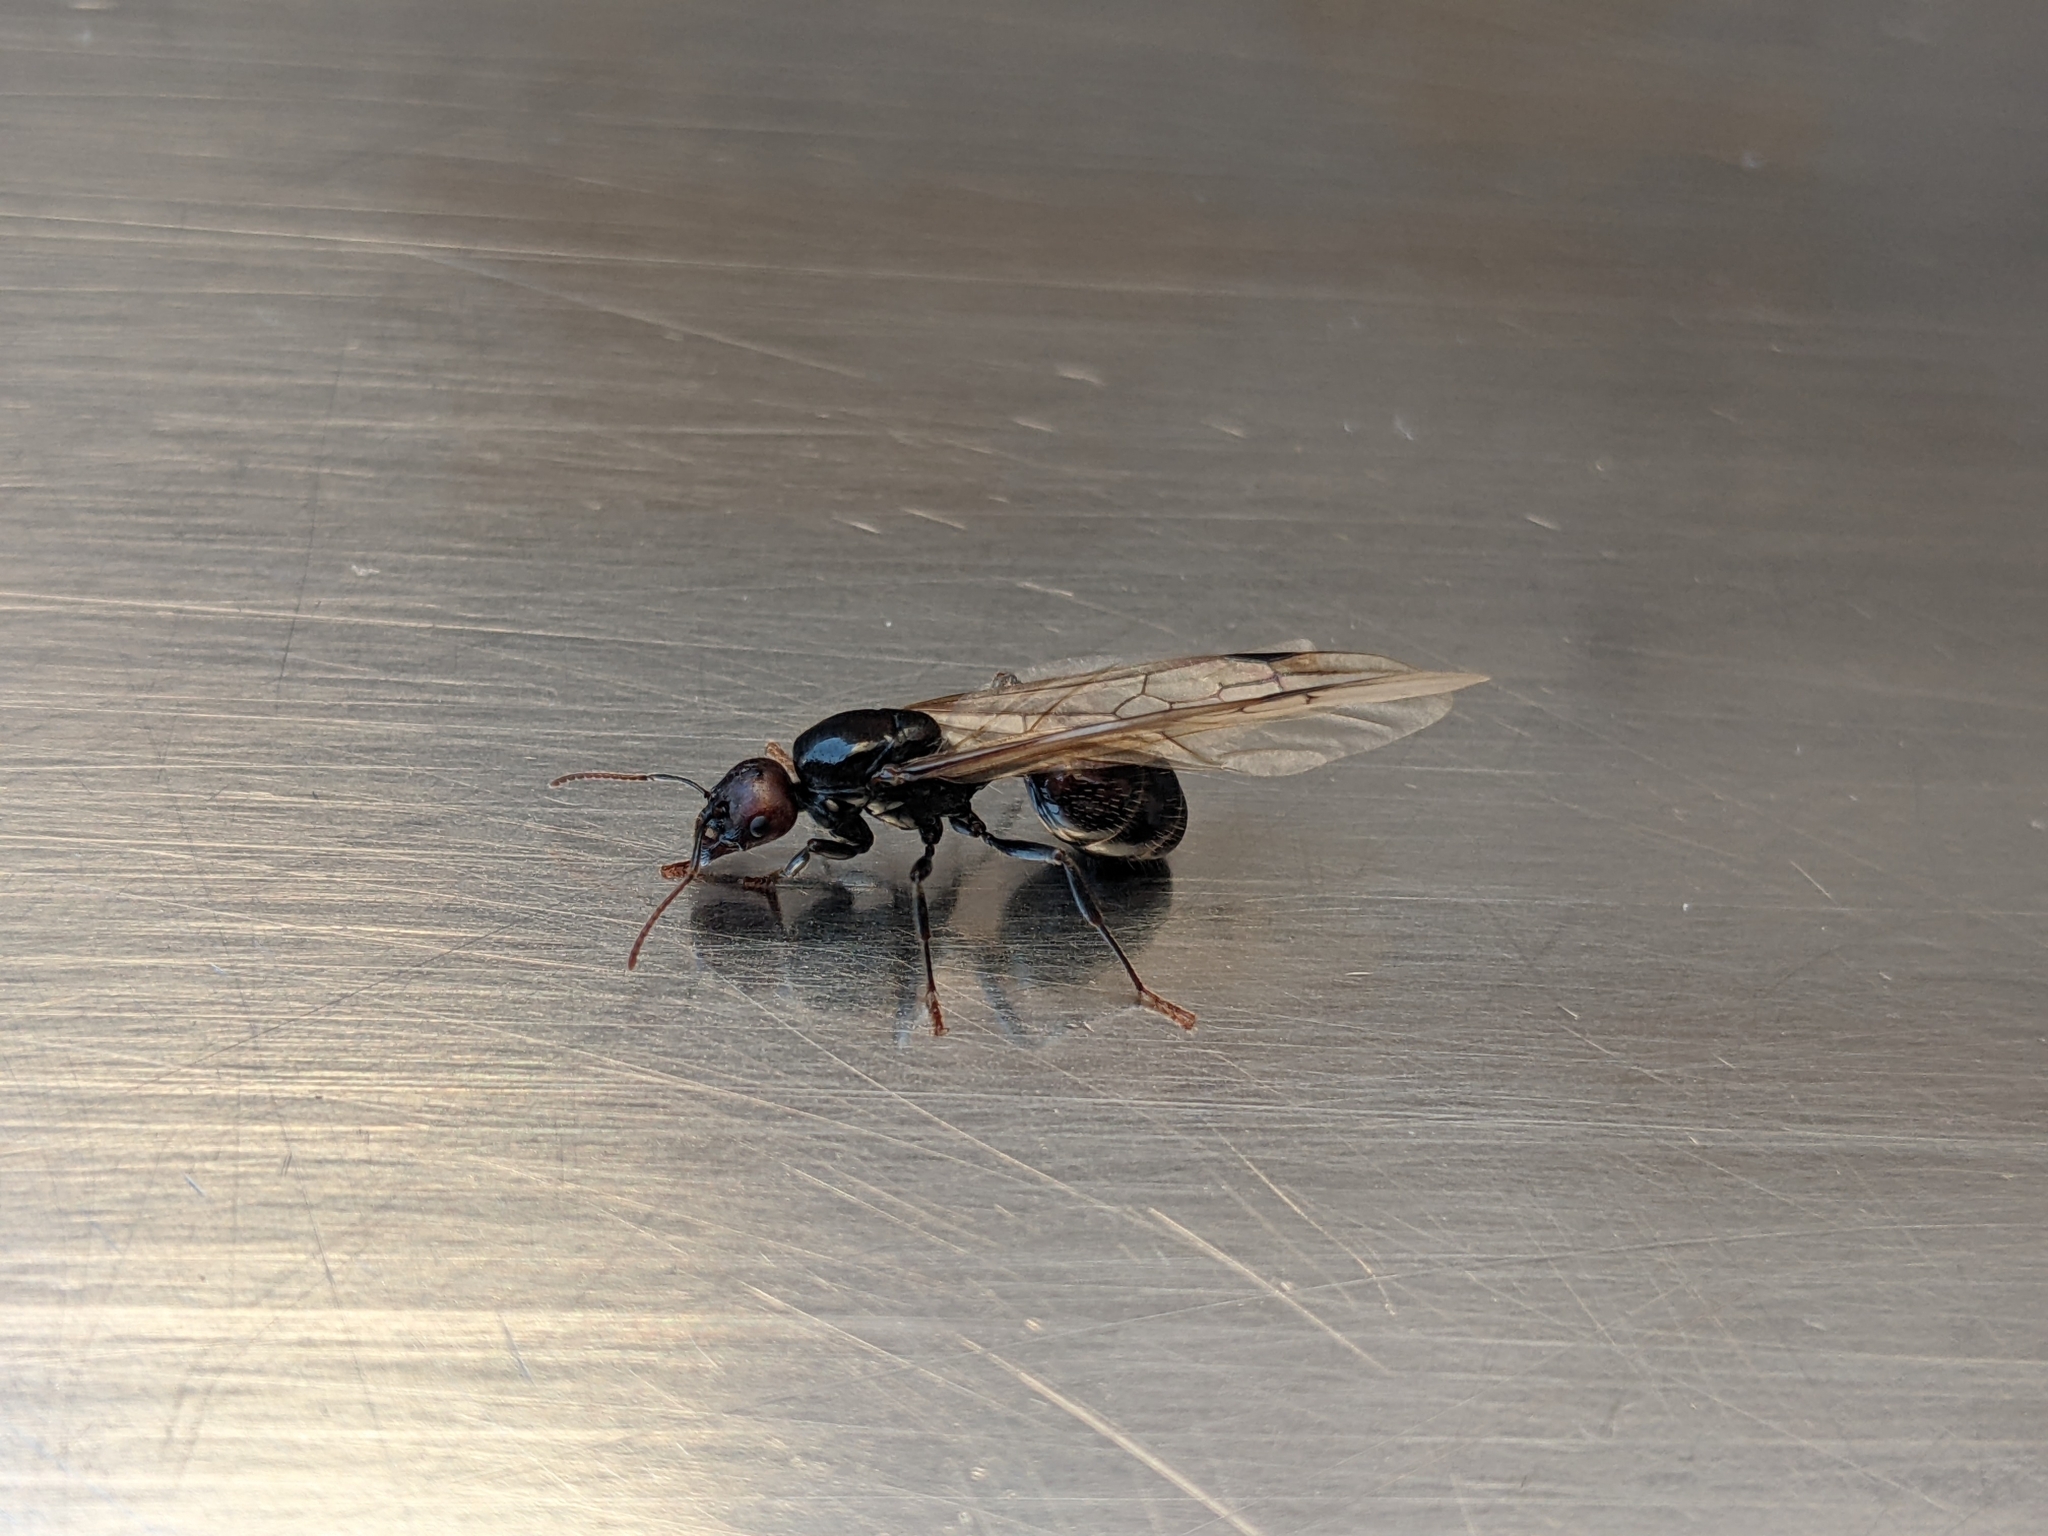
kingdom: Animalia
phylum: Arthropoda
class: Insecta
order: Hymenoptera
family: Formicidae
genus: Messor
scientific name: Messor barbarus
